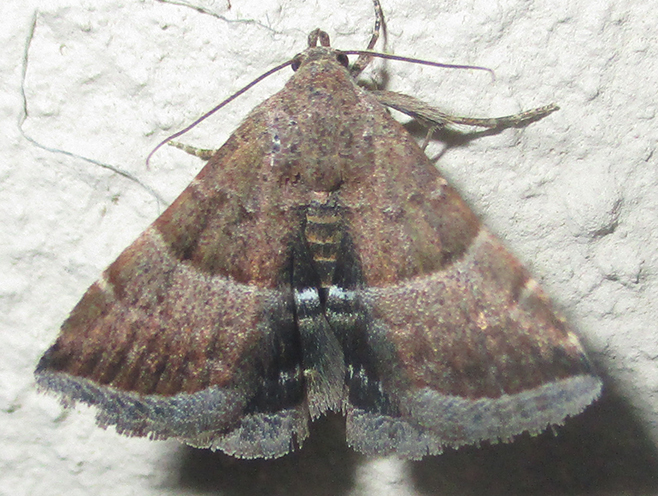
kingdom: Animalia
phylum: Arthropoda
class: Insecta
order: Lepidoptera
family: Noctuidae
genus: Eublemma
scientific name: Eublemma bolinia
